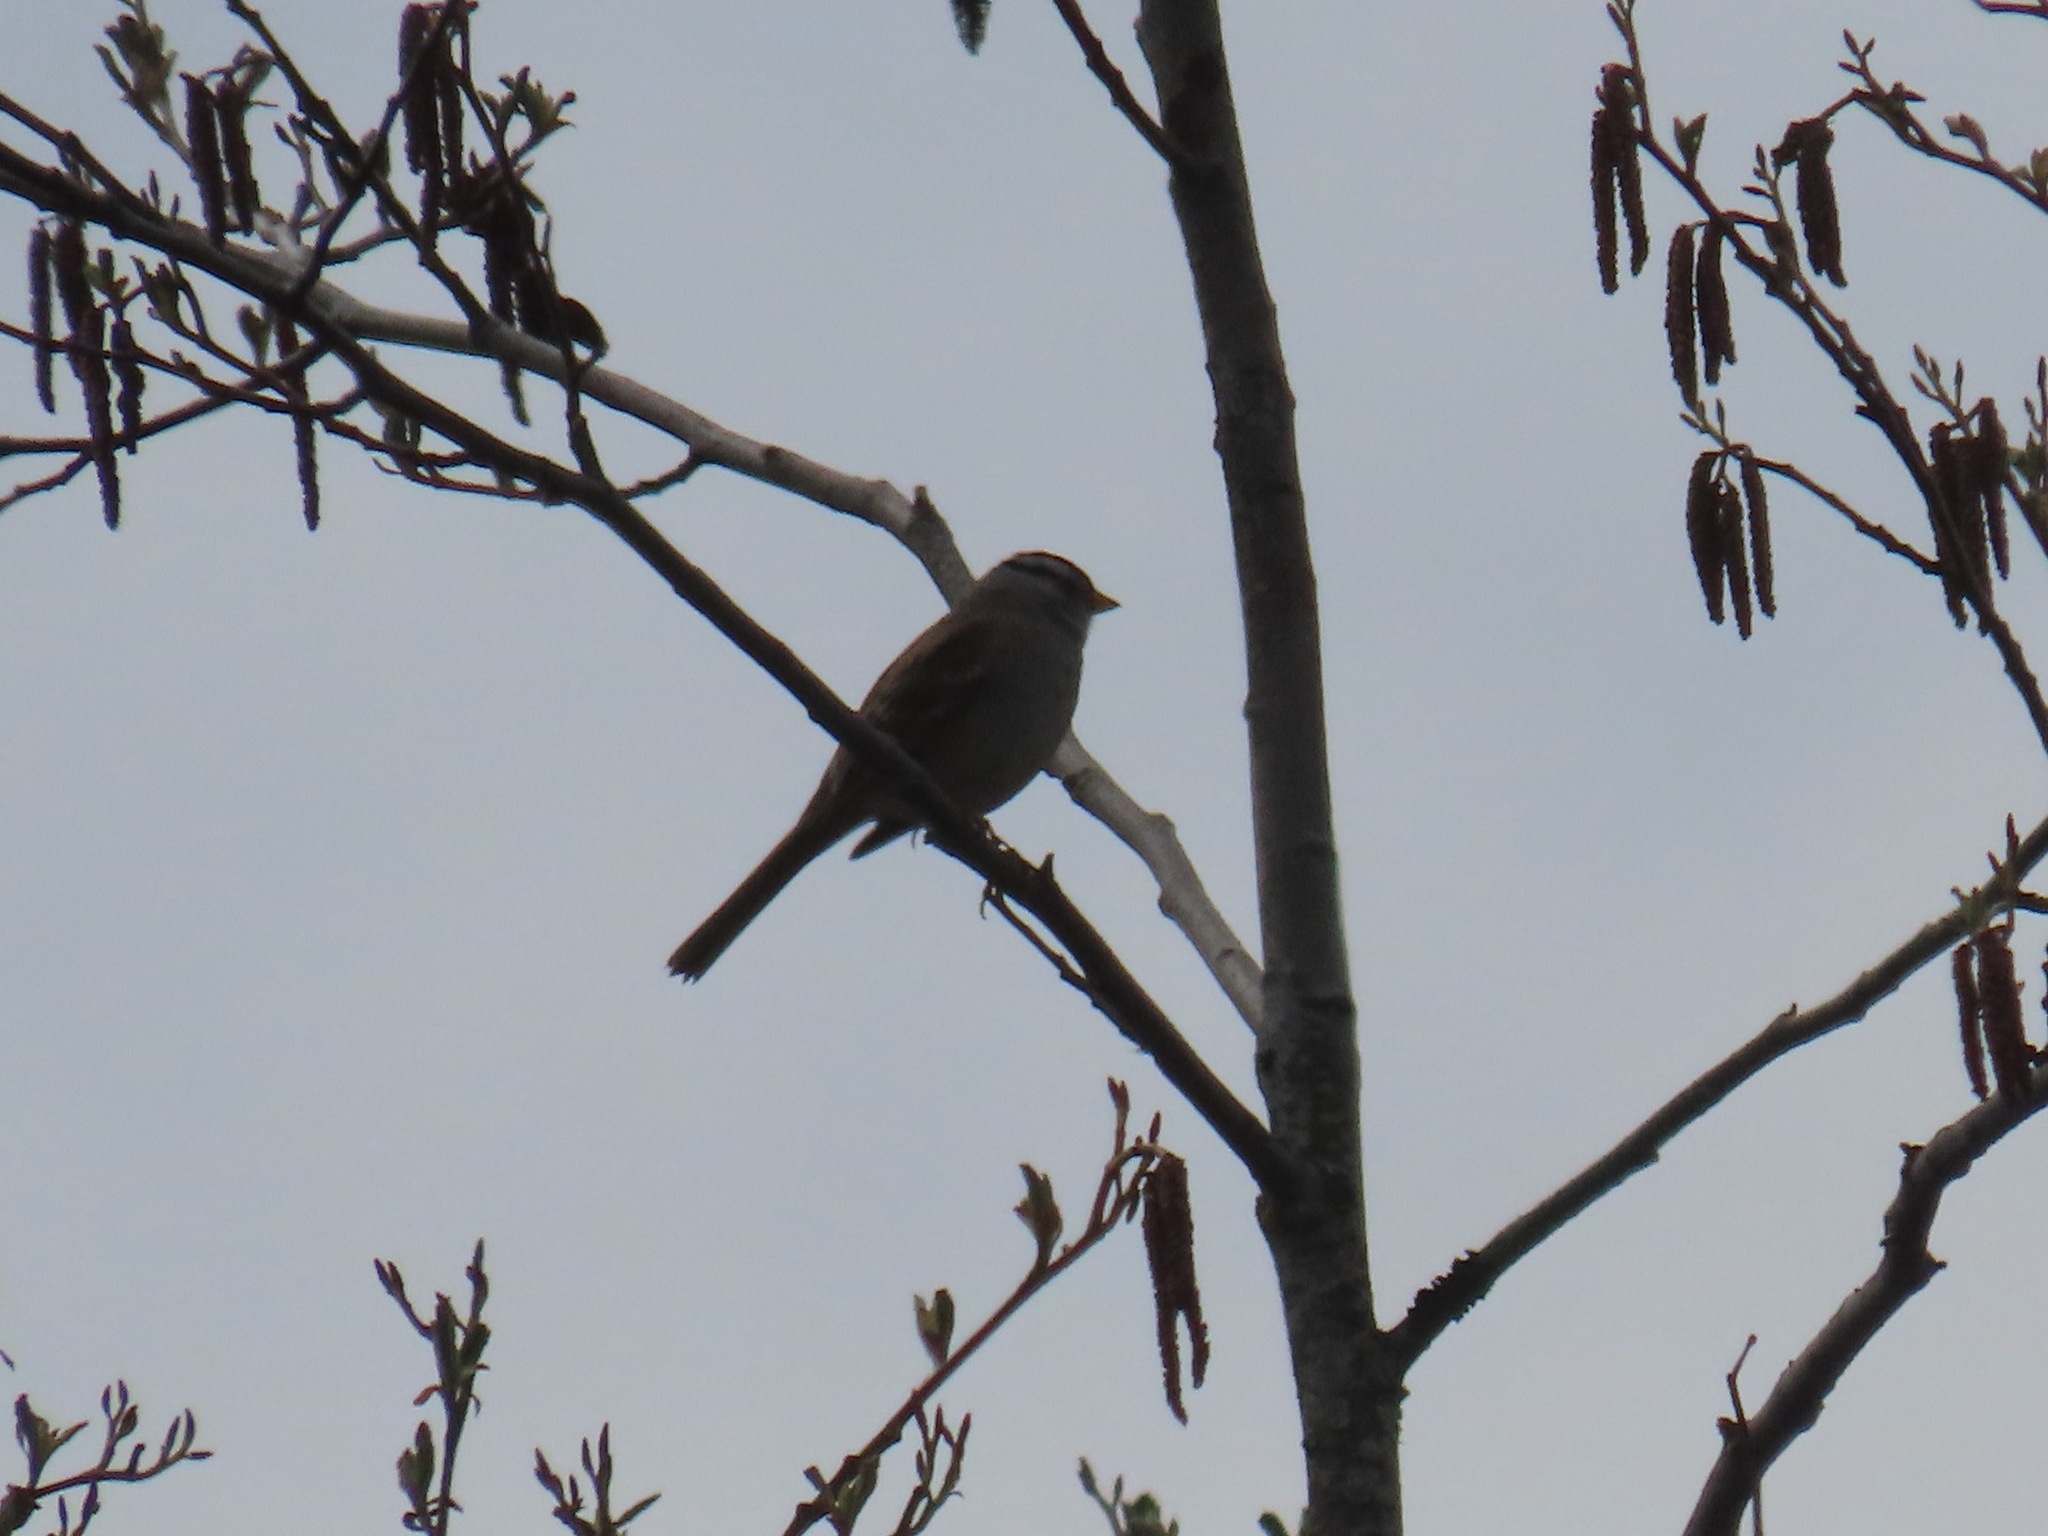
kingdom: Animalia
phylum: Chordata
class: Aves
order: Passeriformes
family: Passerellidae
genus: Zonotrichia
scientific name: Zonotrichia leucophrys
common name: White-crowned sparrow
